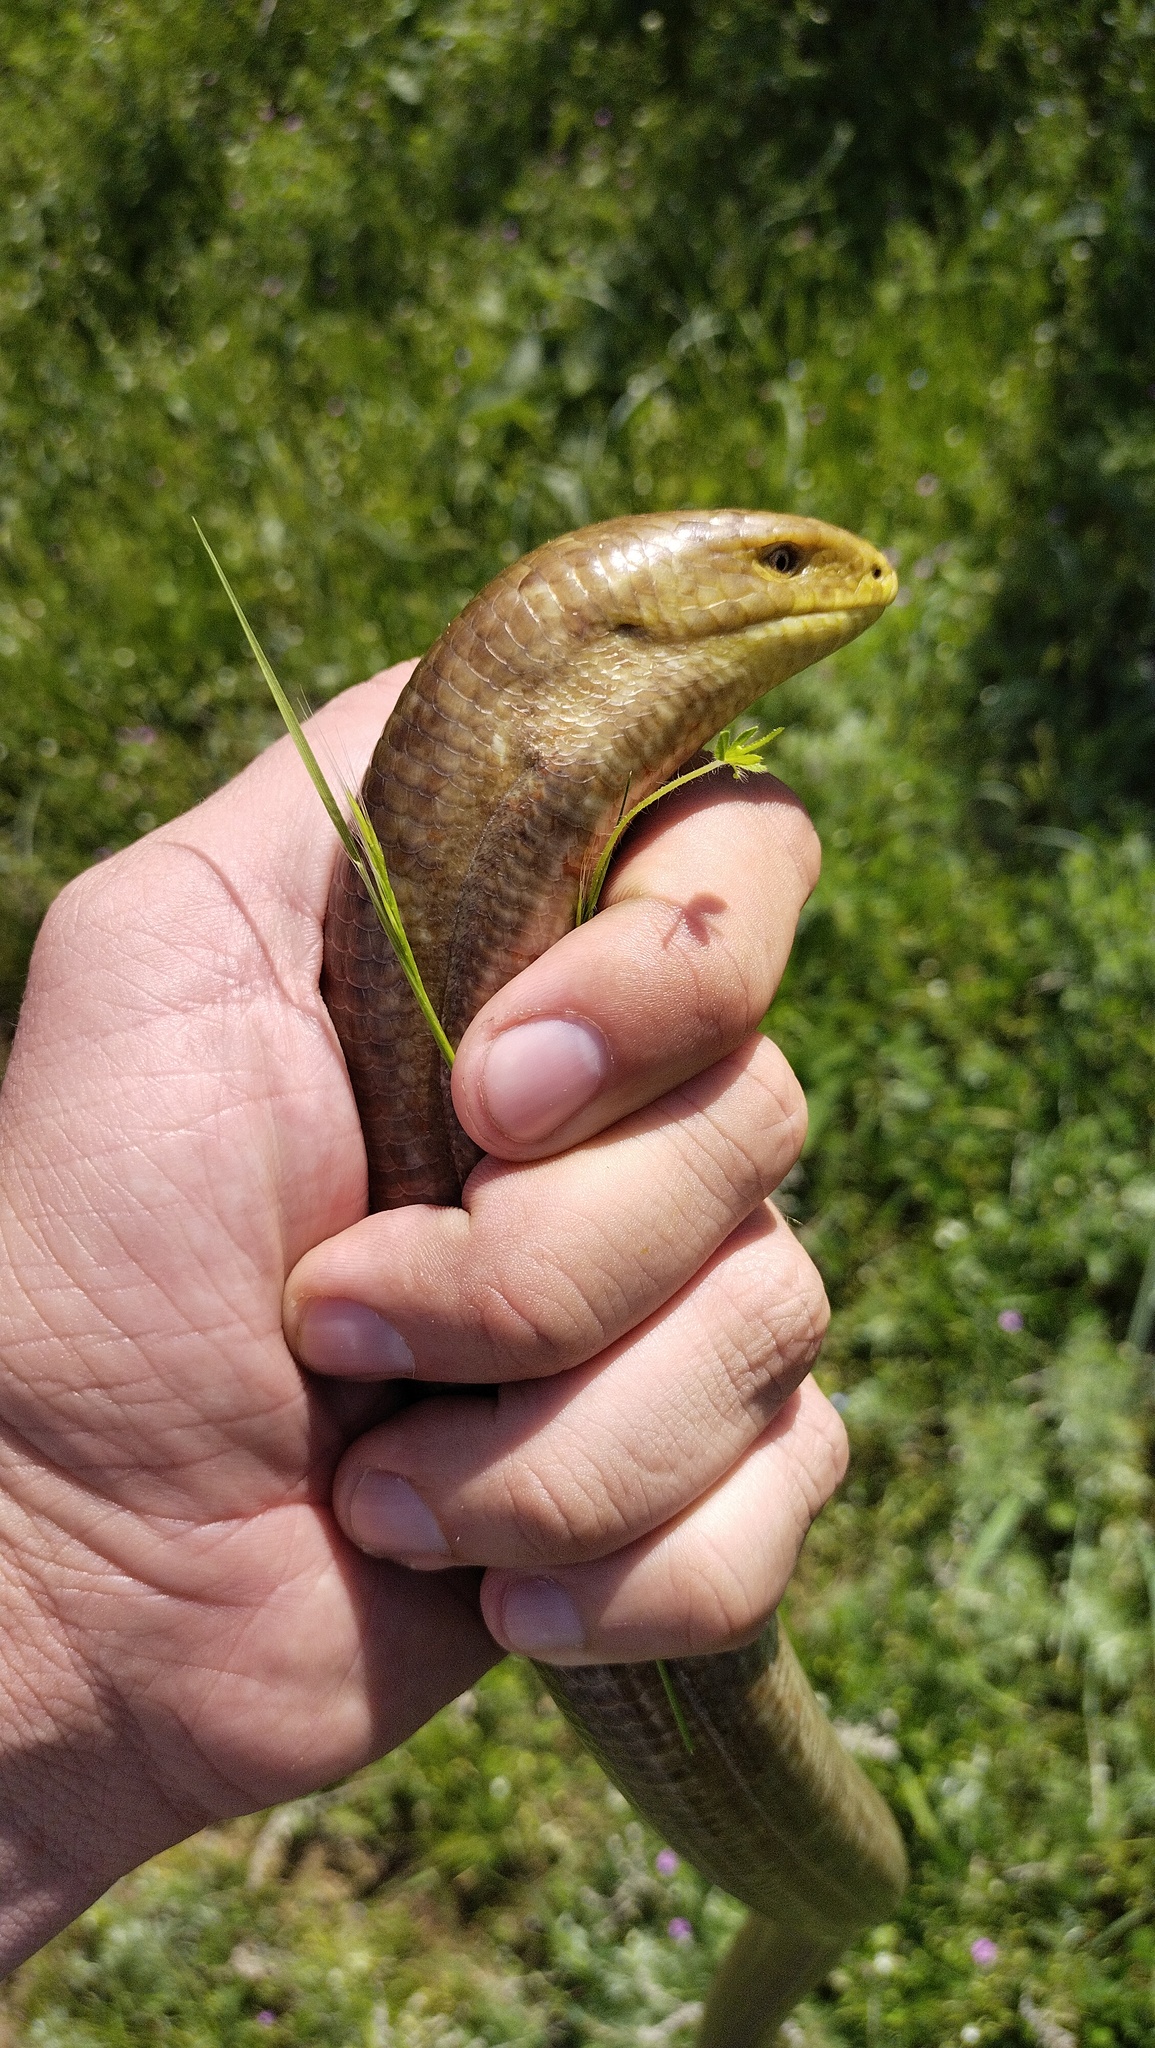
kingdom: Animalia
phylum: Chordata
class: Squamata
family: Anguidae
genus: Pseudopus
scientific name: Pseudopus apodus
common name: European glass lizard
